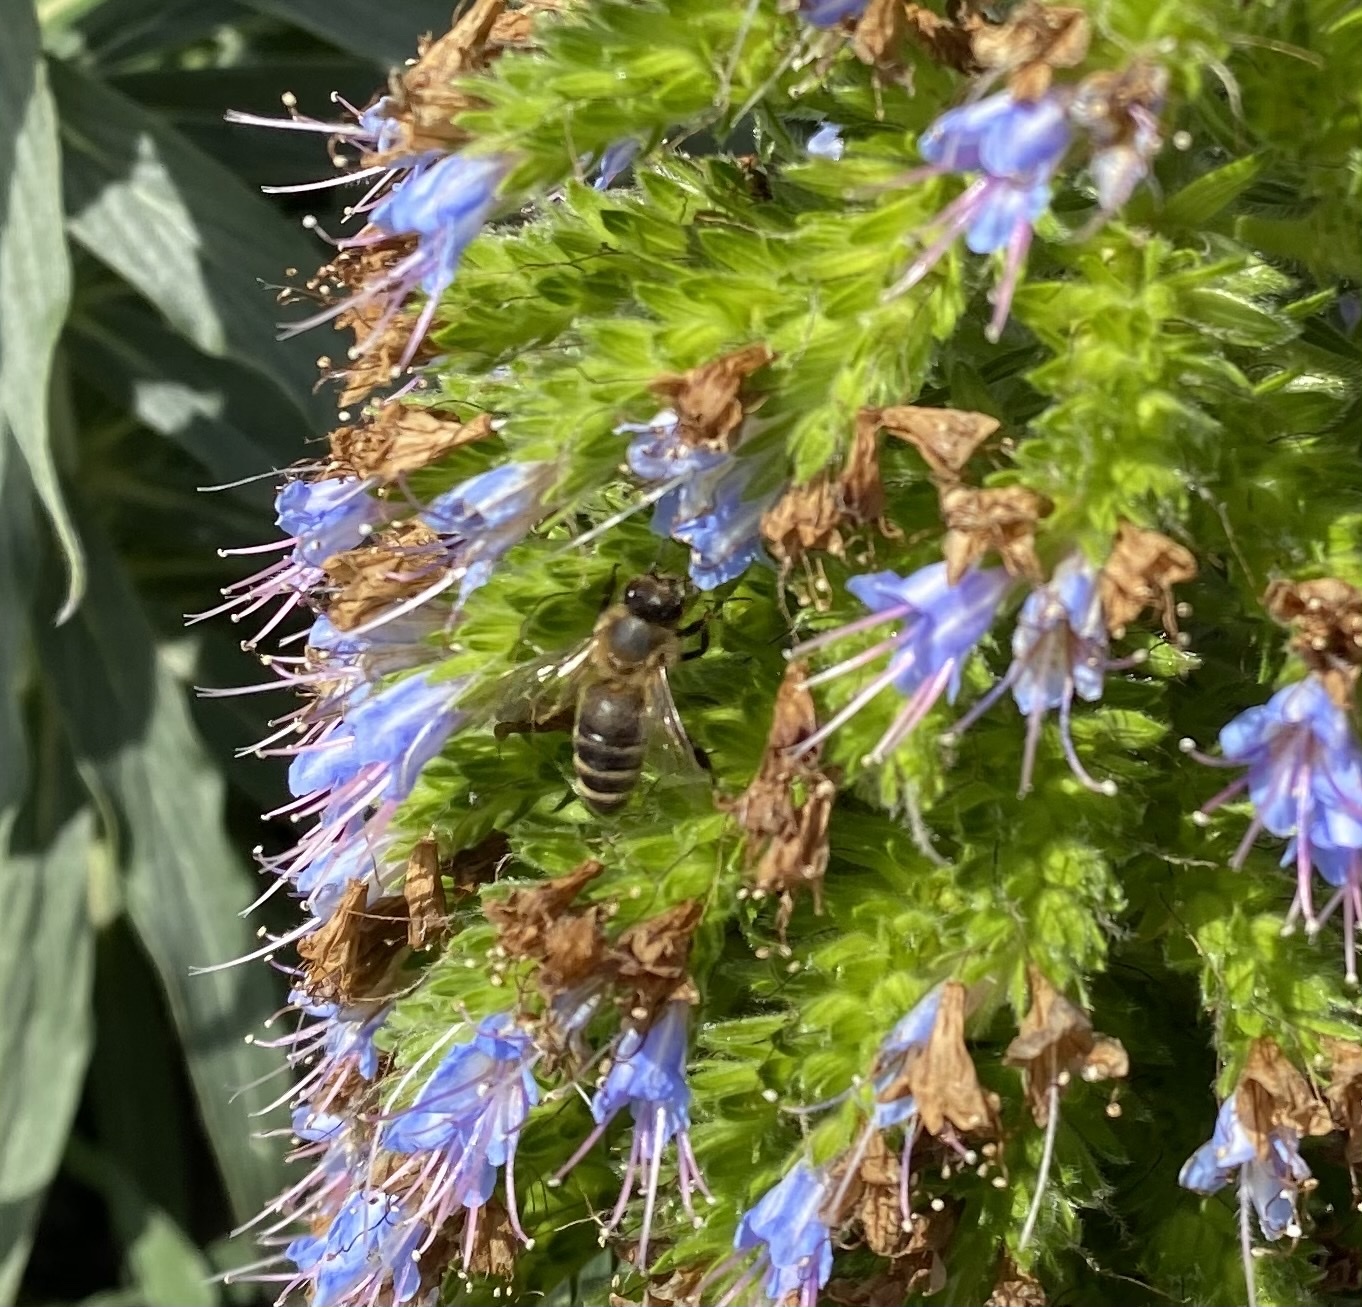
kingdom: Animalia
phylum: Arthropoda
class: Insecta
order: Hymenoptera
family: Apidae
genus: Apis
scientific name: Apis mellifera
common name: Honey bee
